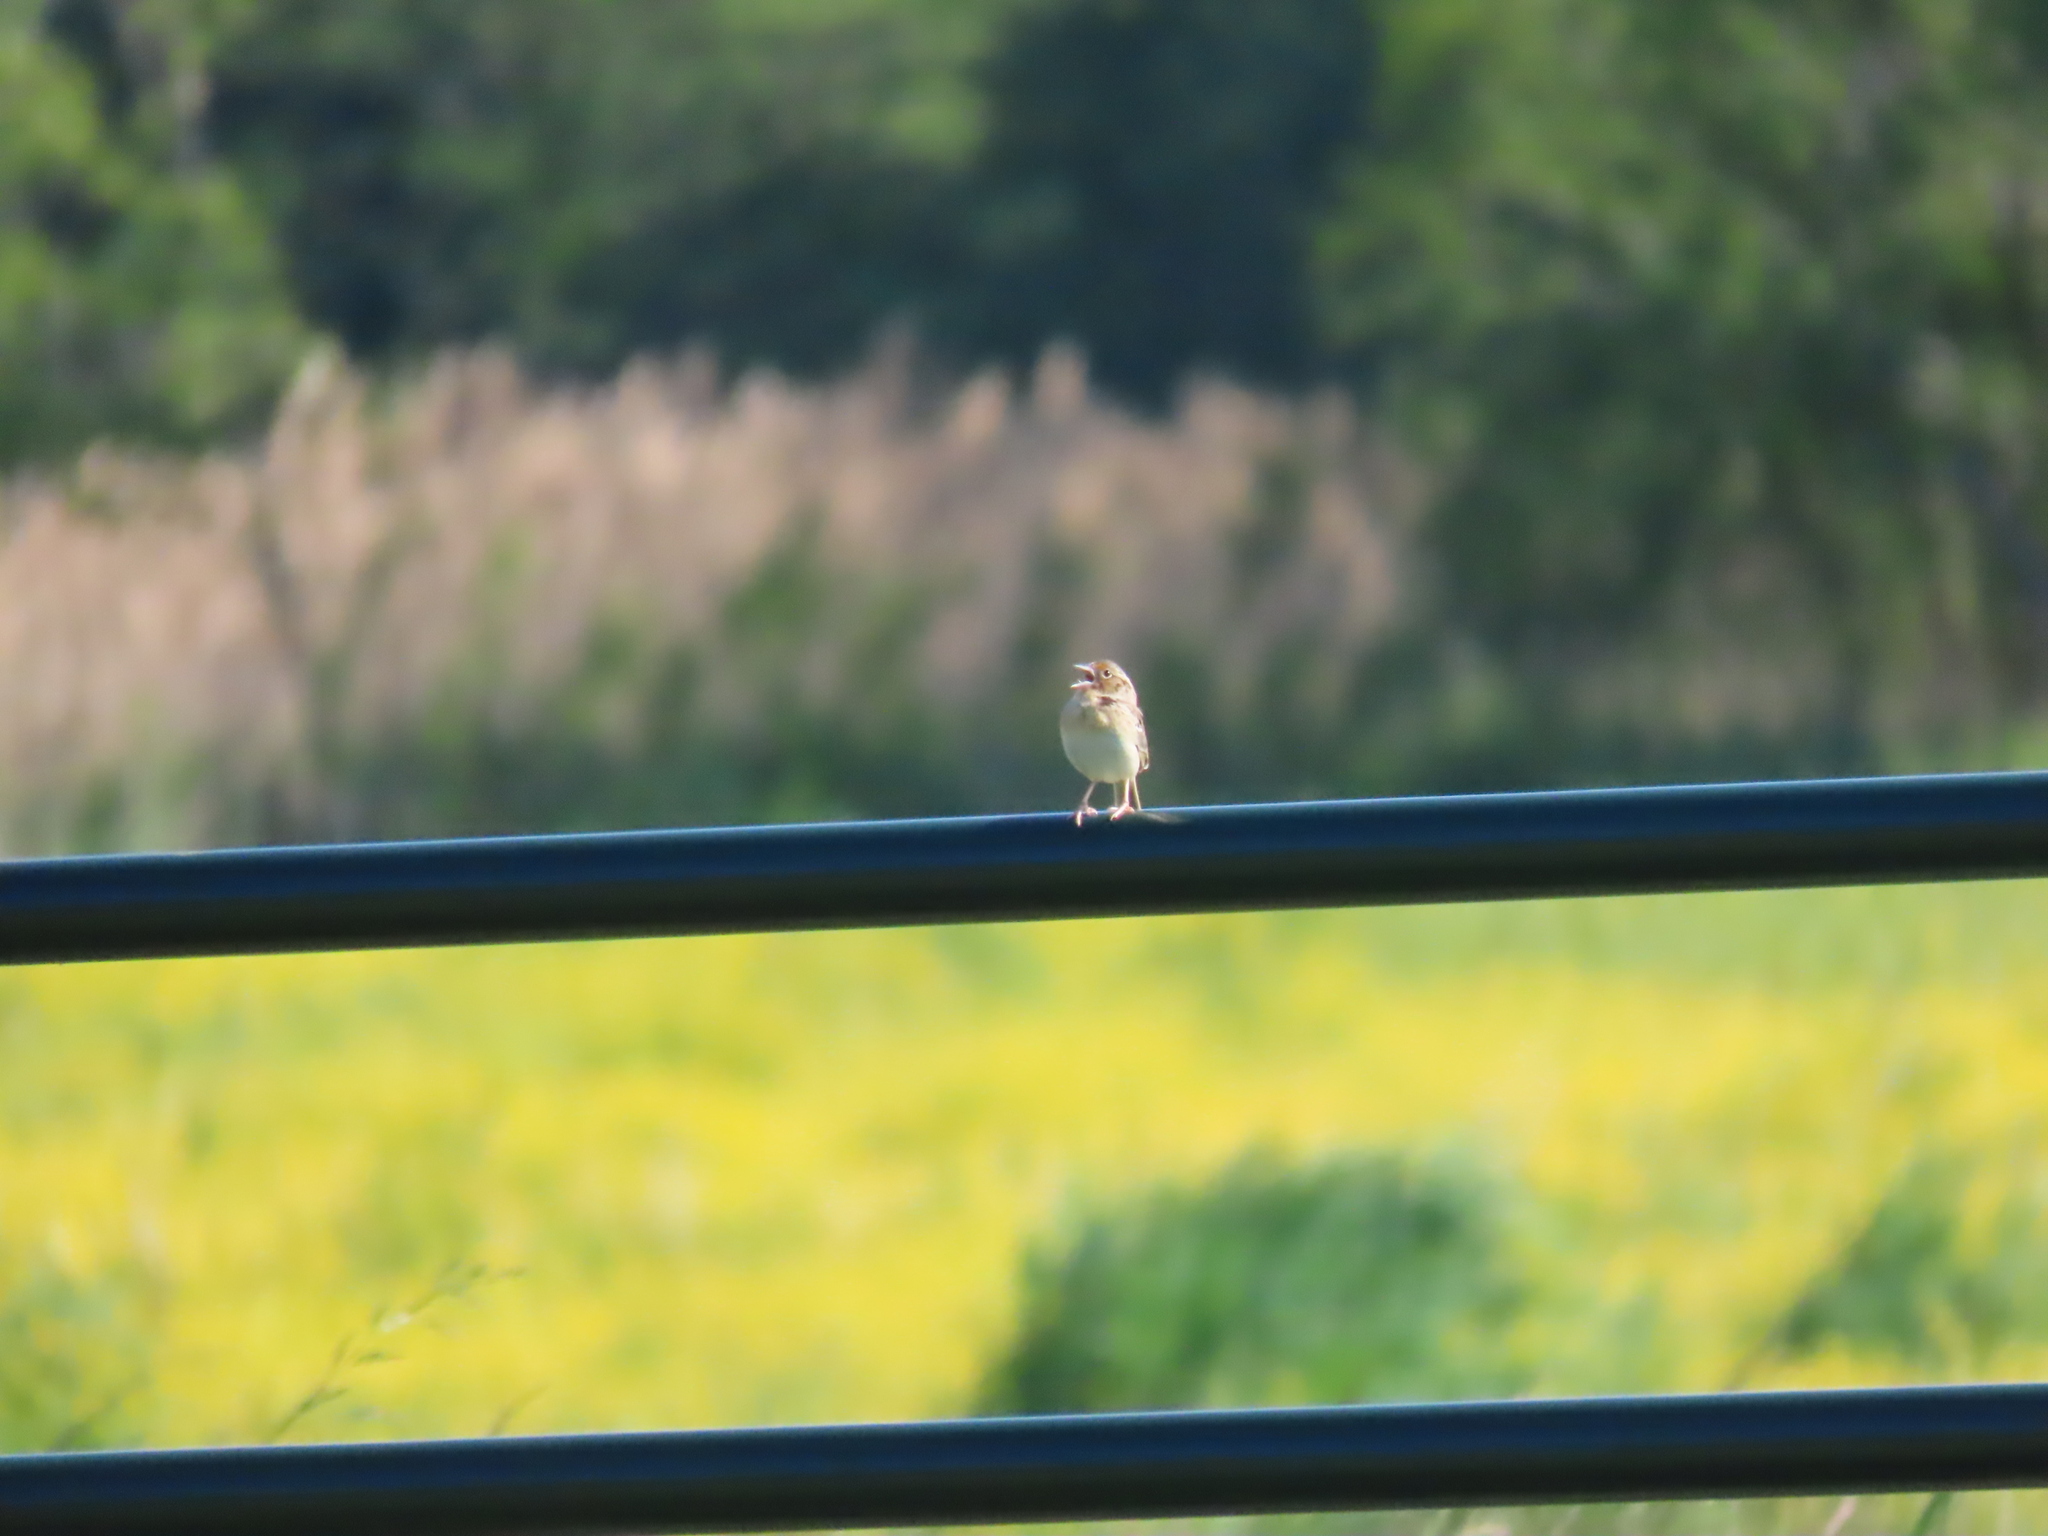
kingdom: Animalia
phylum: Chordata
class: Aves
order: Passeriformes
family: Passerellidae
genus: Ammodramus
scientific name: Ammodramus savannarum
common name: Grasshopper sparrow
